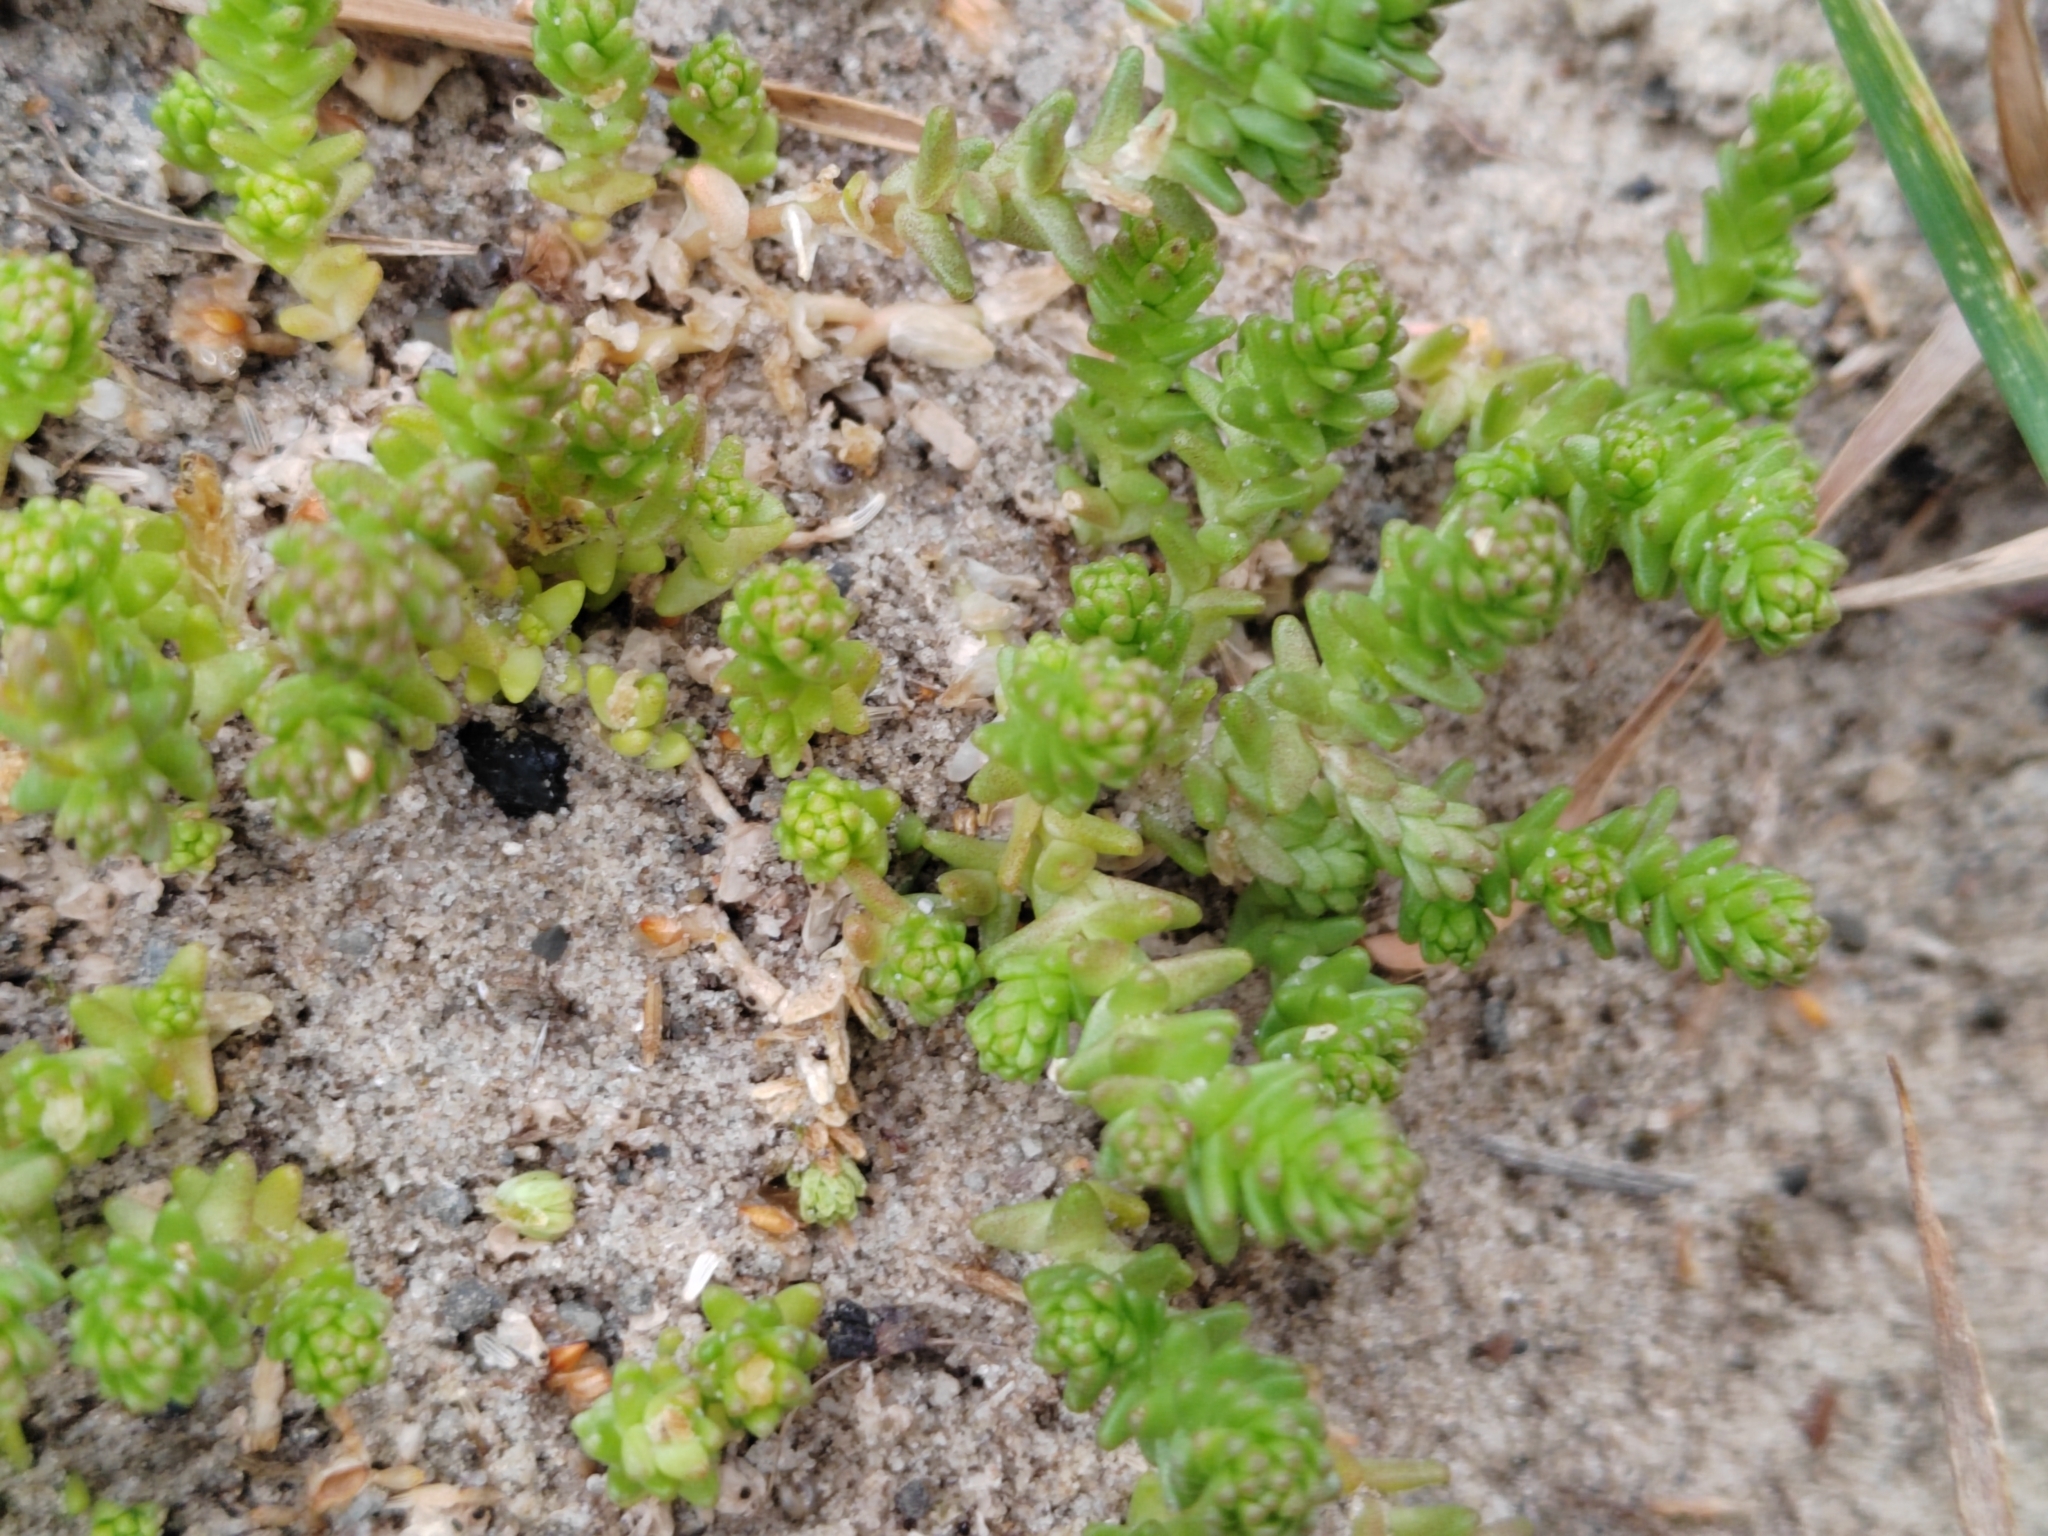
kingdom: Plantae
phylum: Tracheophyta
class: Magnoliopsida
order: Saxifragales
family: Crassulaceae
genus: Sedum
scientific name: Sedum acre
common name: Biting stonecrop
